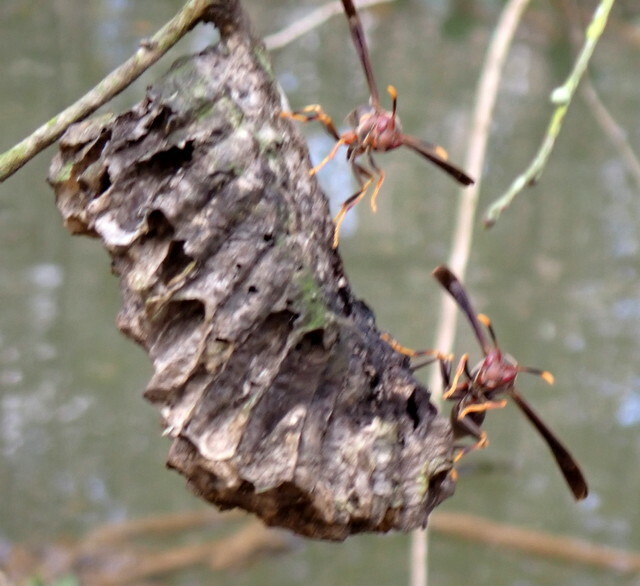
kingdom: Animalia
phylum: Arthropoda
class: Insecta
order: Hymenoptera
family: Eumenidae
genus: Polistes
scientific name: Polistes annularis
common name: Ringed paper wasp
